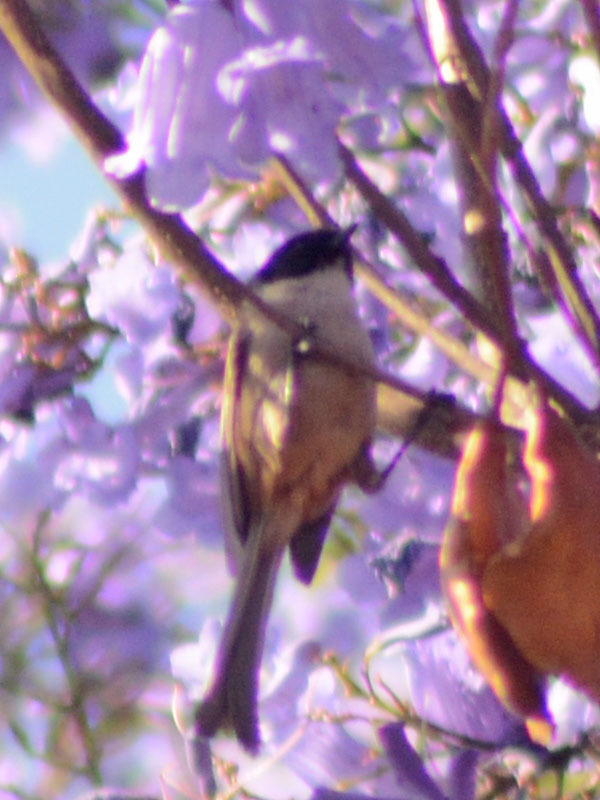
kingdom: Animalia
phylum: Chordata
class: Aves
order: Passeriformes
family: Aegithalidae
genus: Psaltriparus
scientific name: Psaltriparus minimus
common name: American bushtit
